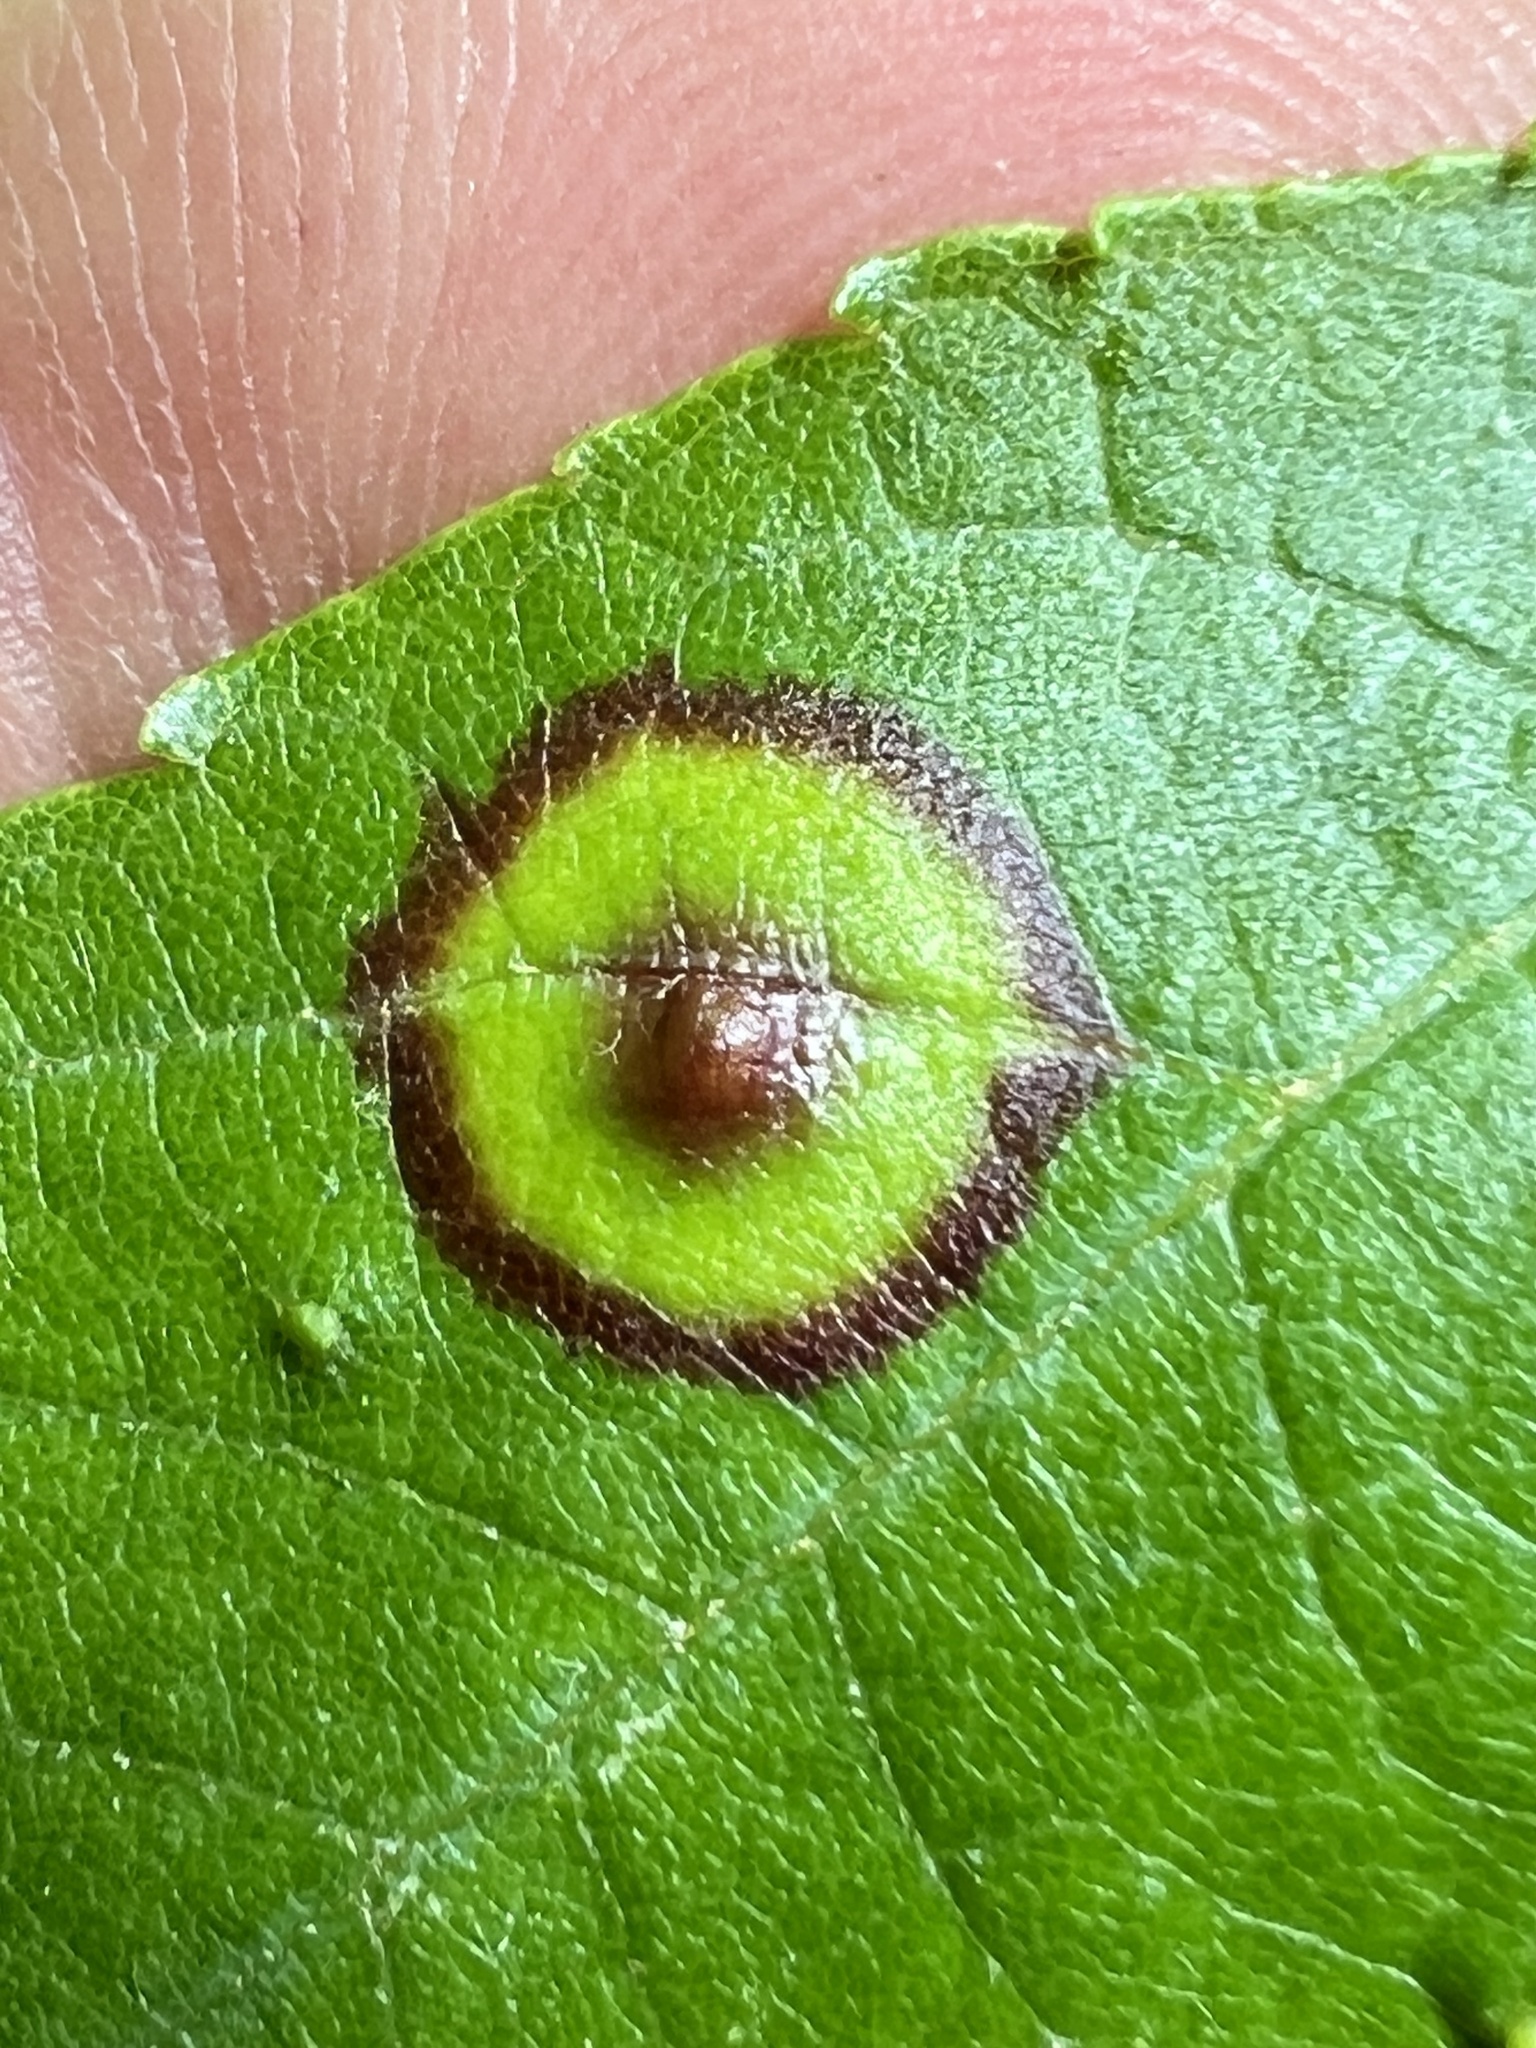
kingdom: Animalia
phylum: Arthropoda
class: Insecta
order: Diptera
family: Cecidomyiidae
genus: Acericecis
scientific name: Acericecis ocellaris
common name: Ocellate gall midge
